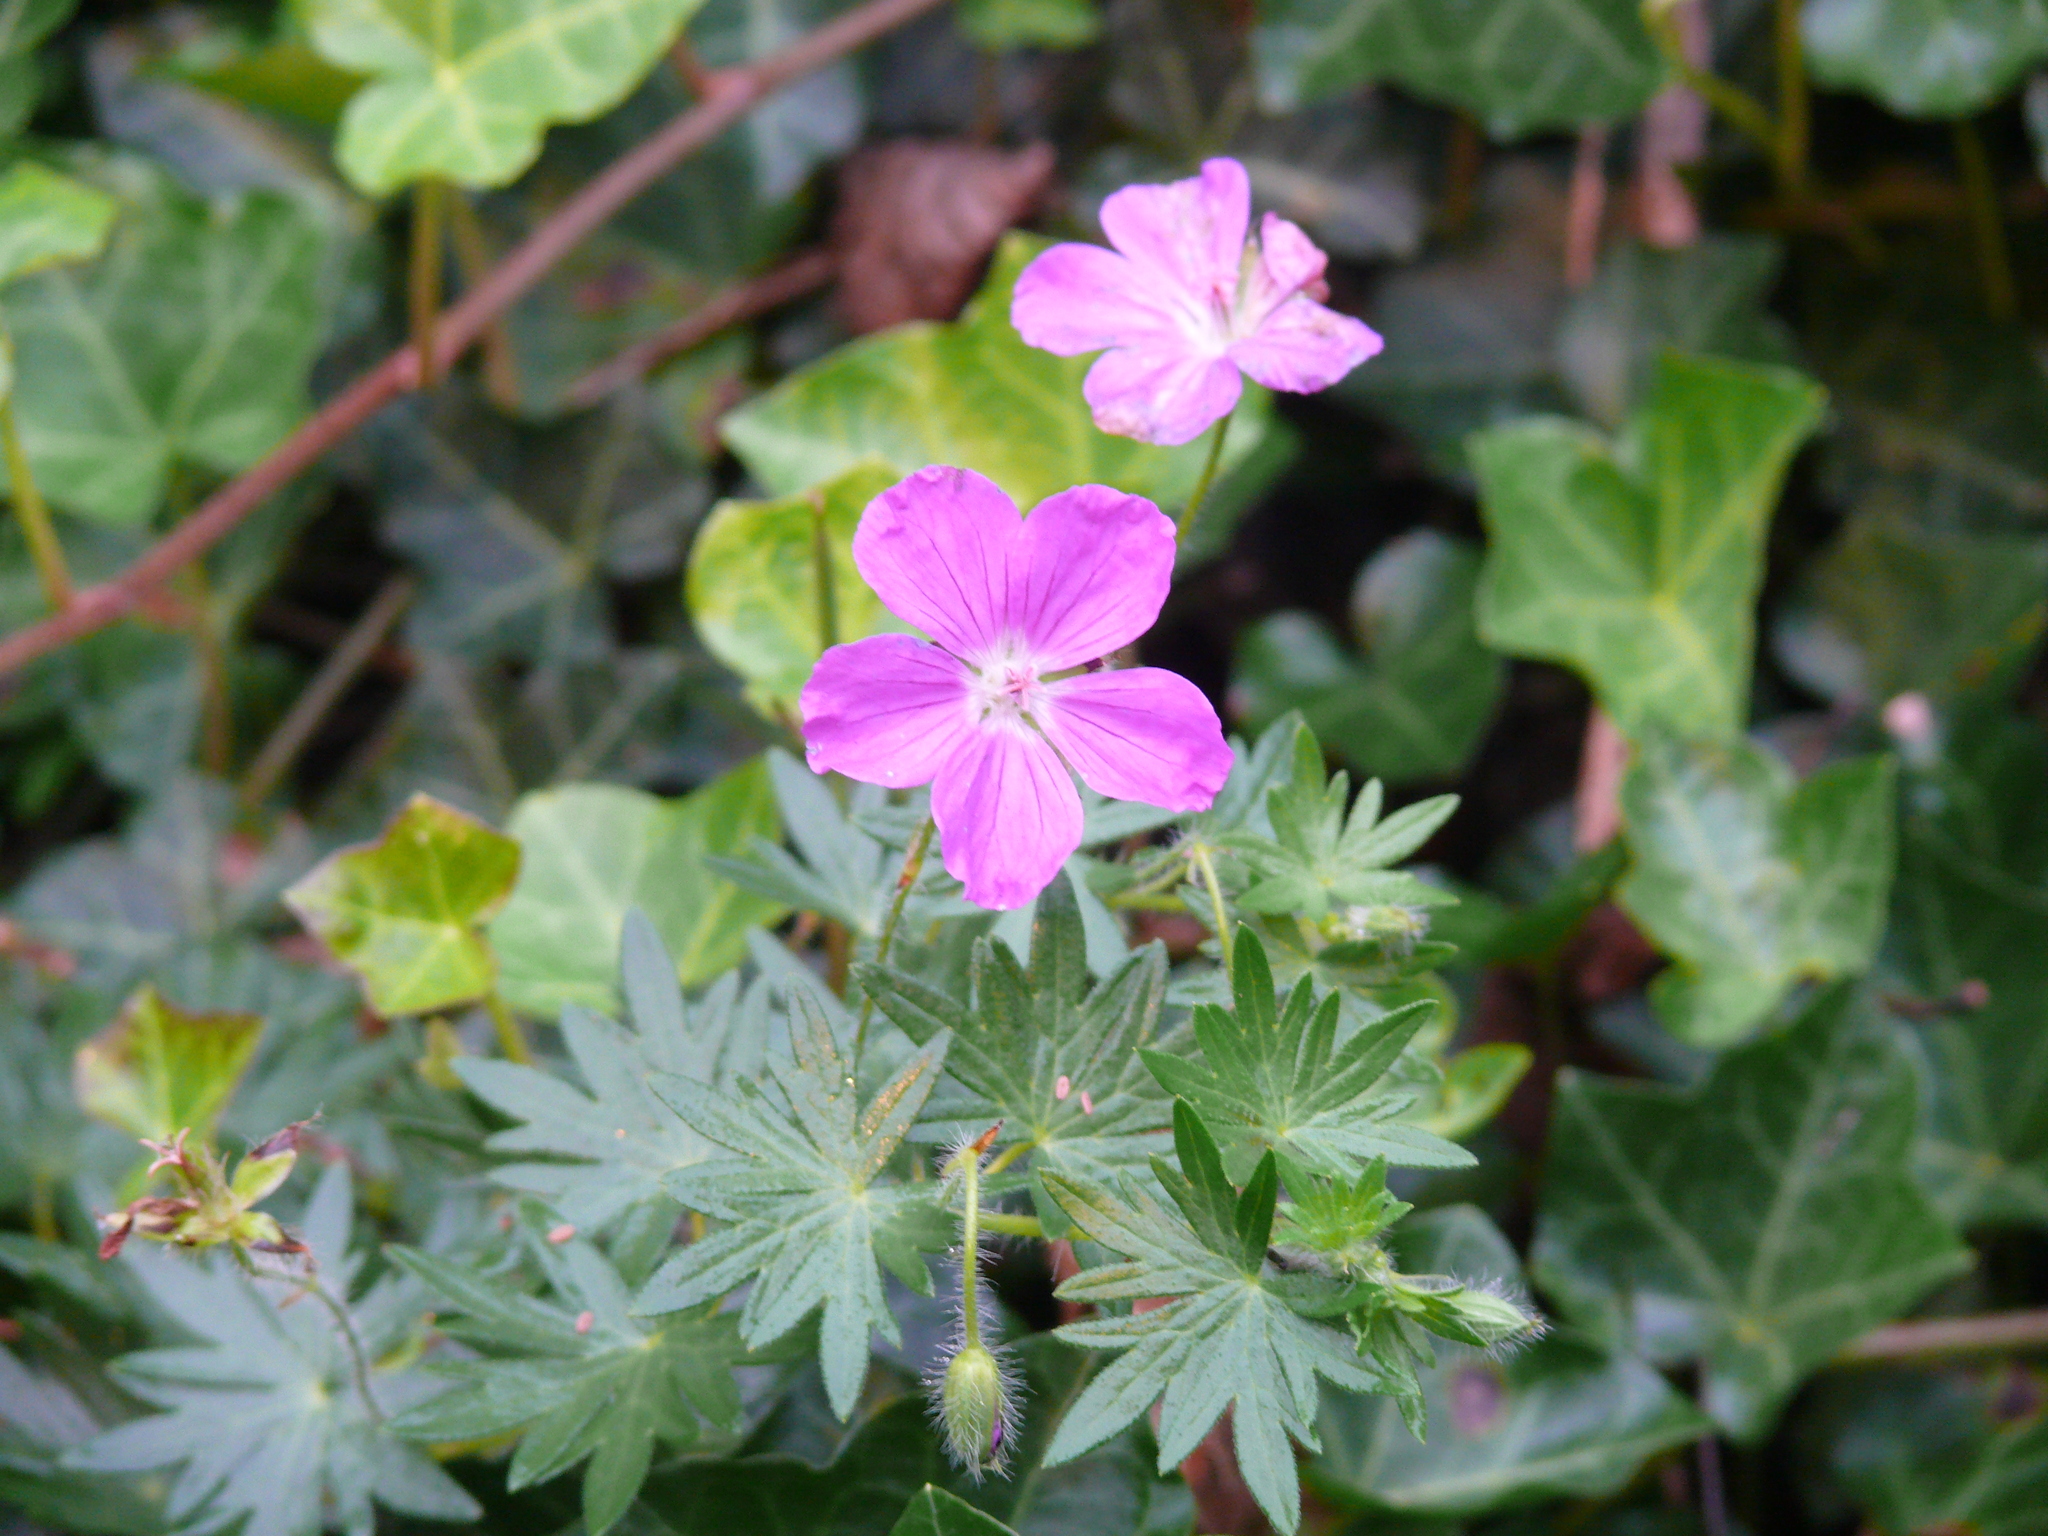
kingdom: Plantae
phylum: Tracheophyta
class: Magnoliopsida
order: Geraniales
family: Geraniaceae
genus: Geranium
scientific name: Geranium sanguineum
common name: Bloody crane's-bill
